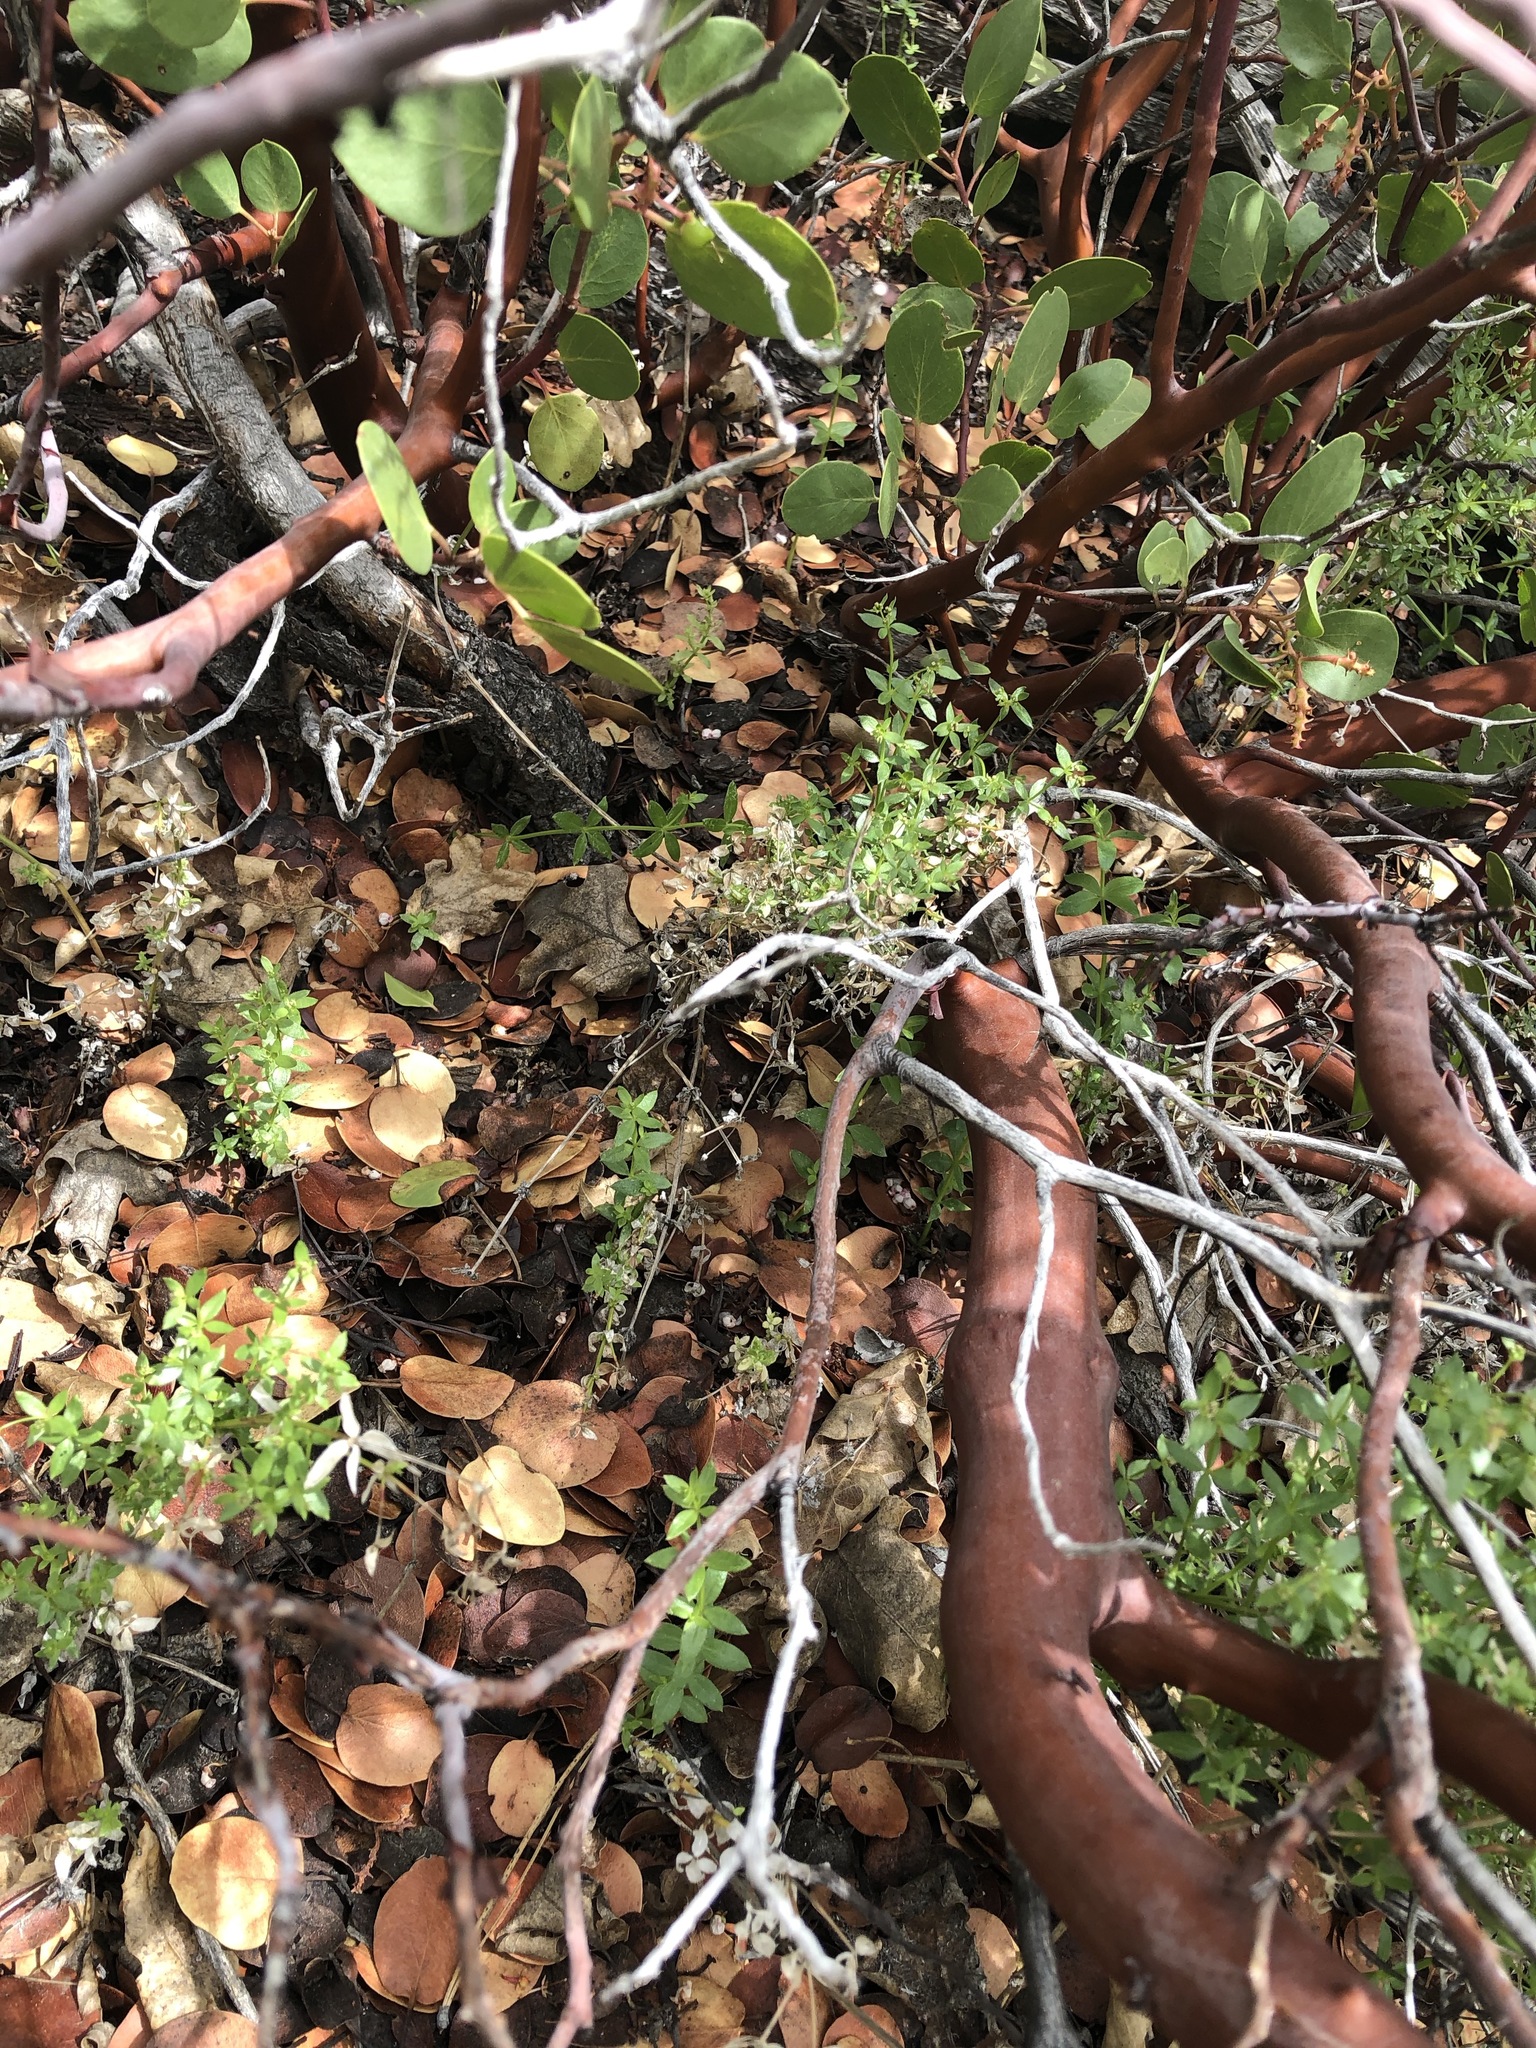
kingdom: Plantae
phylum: Tracheophyta
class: Magnoliopsida
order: Ericales
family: Ericaceae
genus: Arctostaphylos
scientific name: Arctostaphylos patula
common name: Green-leaf manzanita
